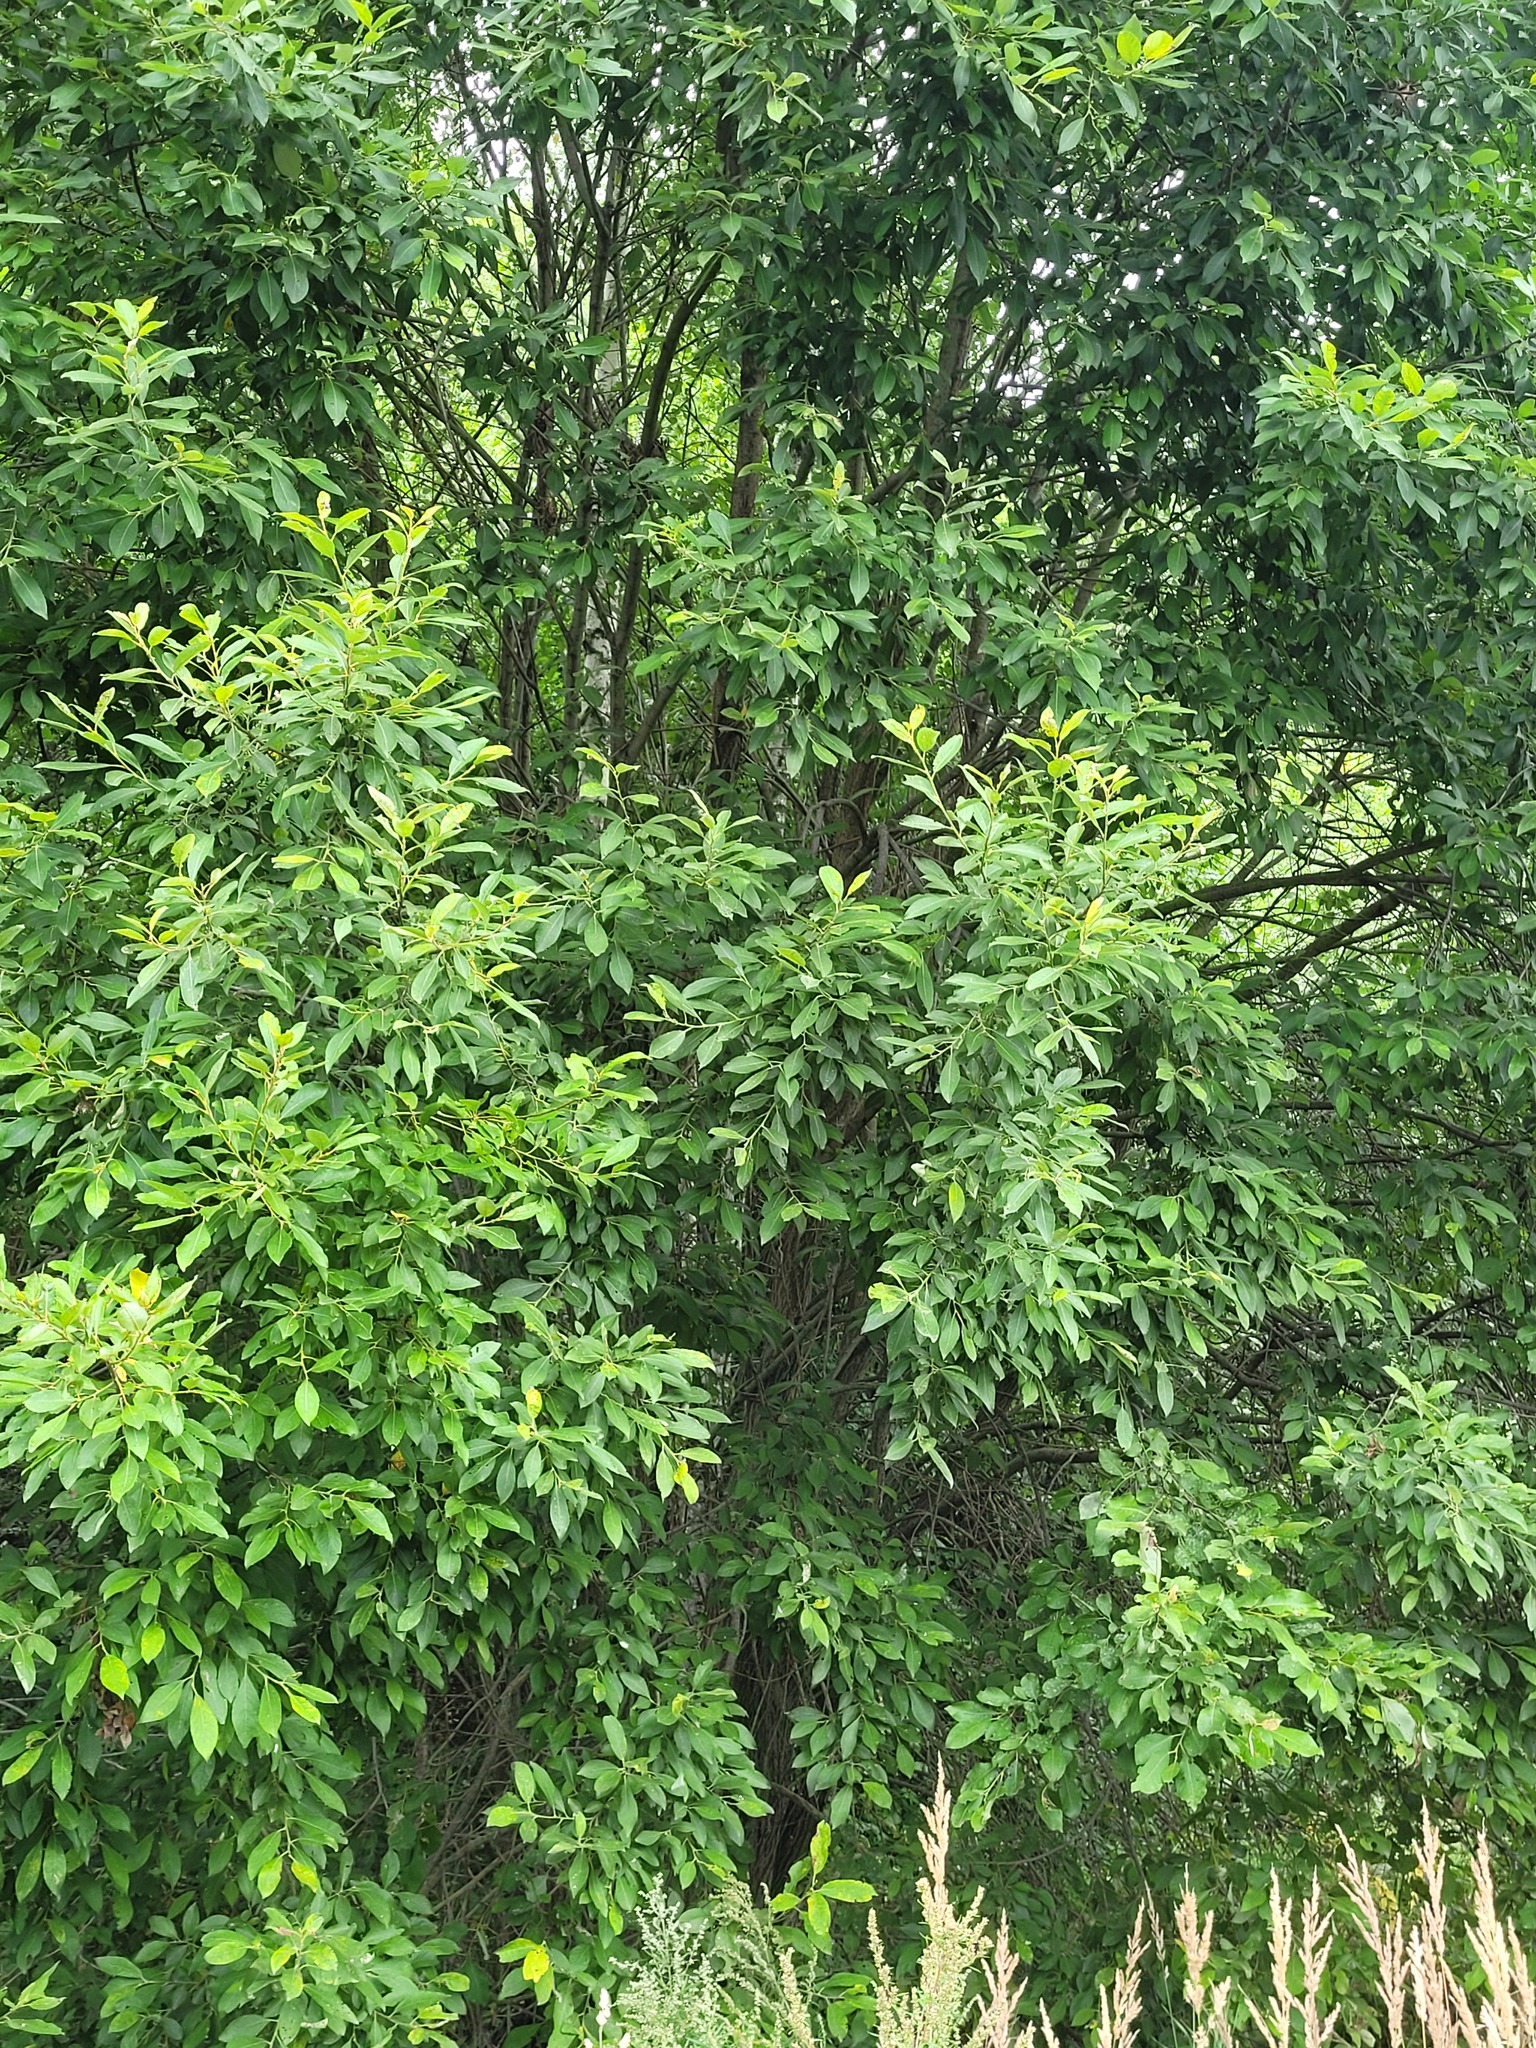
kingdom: Plantae
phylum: Tracheophyta
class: Magnoliopsida
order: Malpighiales
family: Salicaceae
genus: Salix
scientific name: Salix caprea
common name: Goat willow
